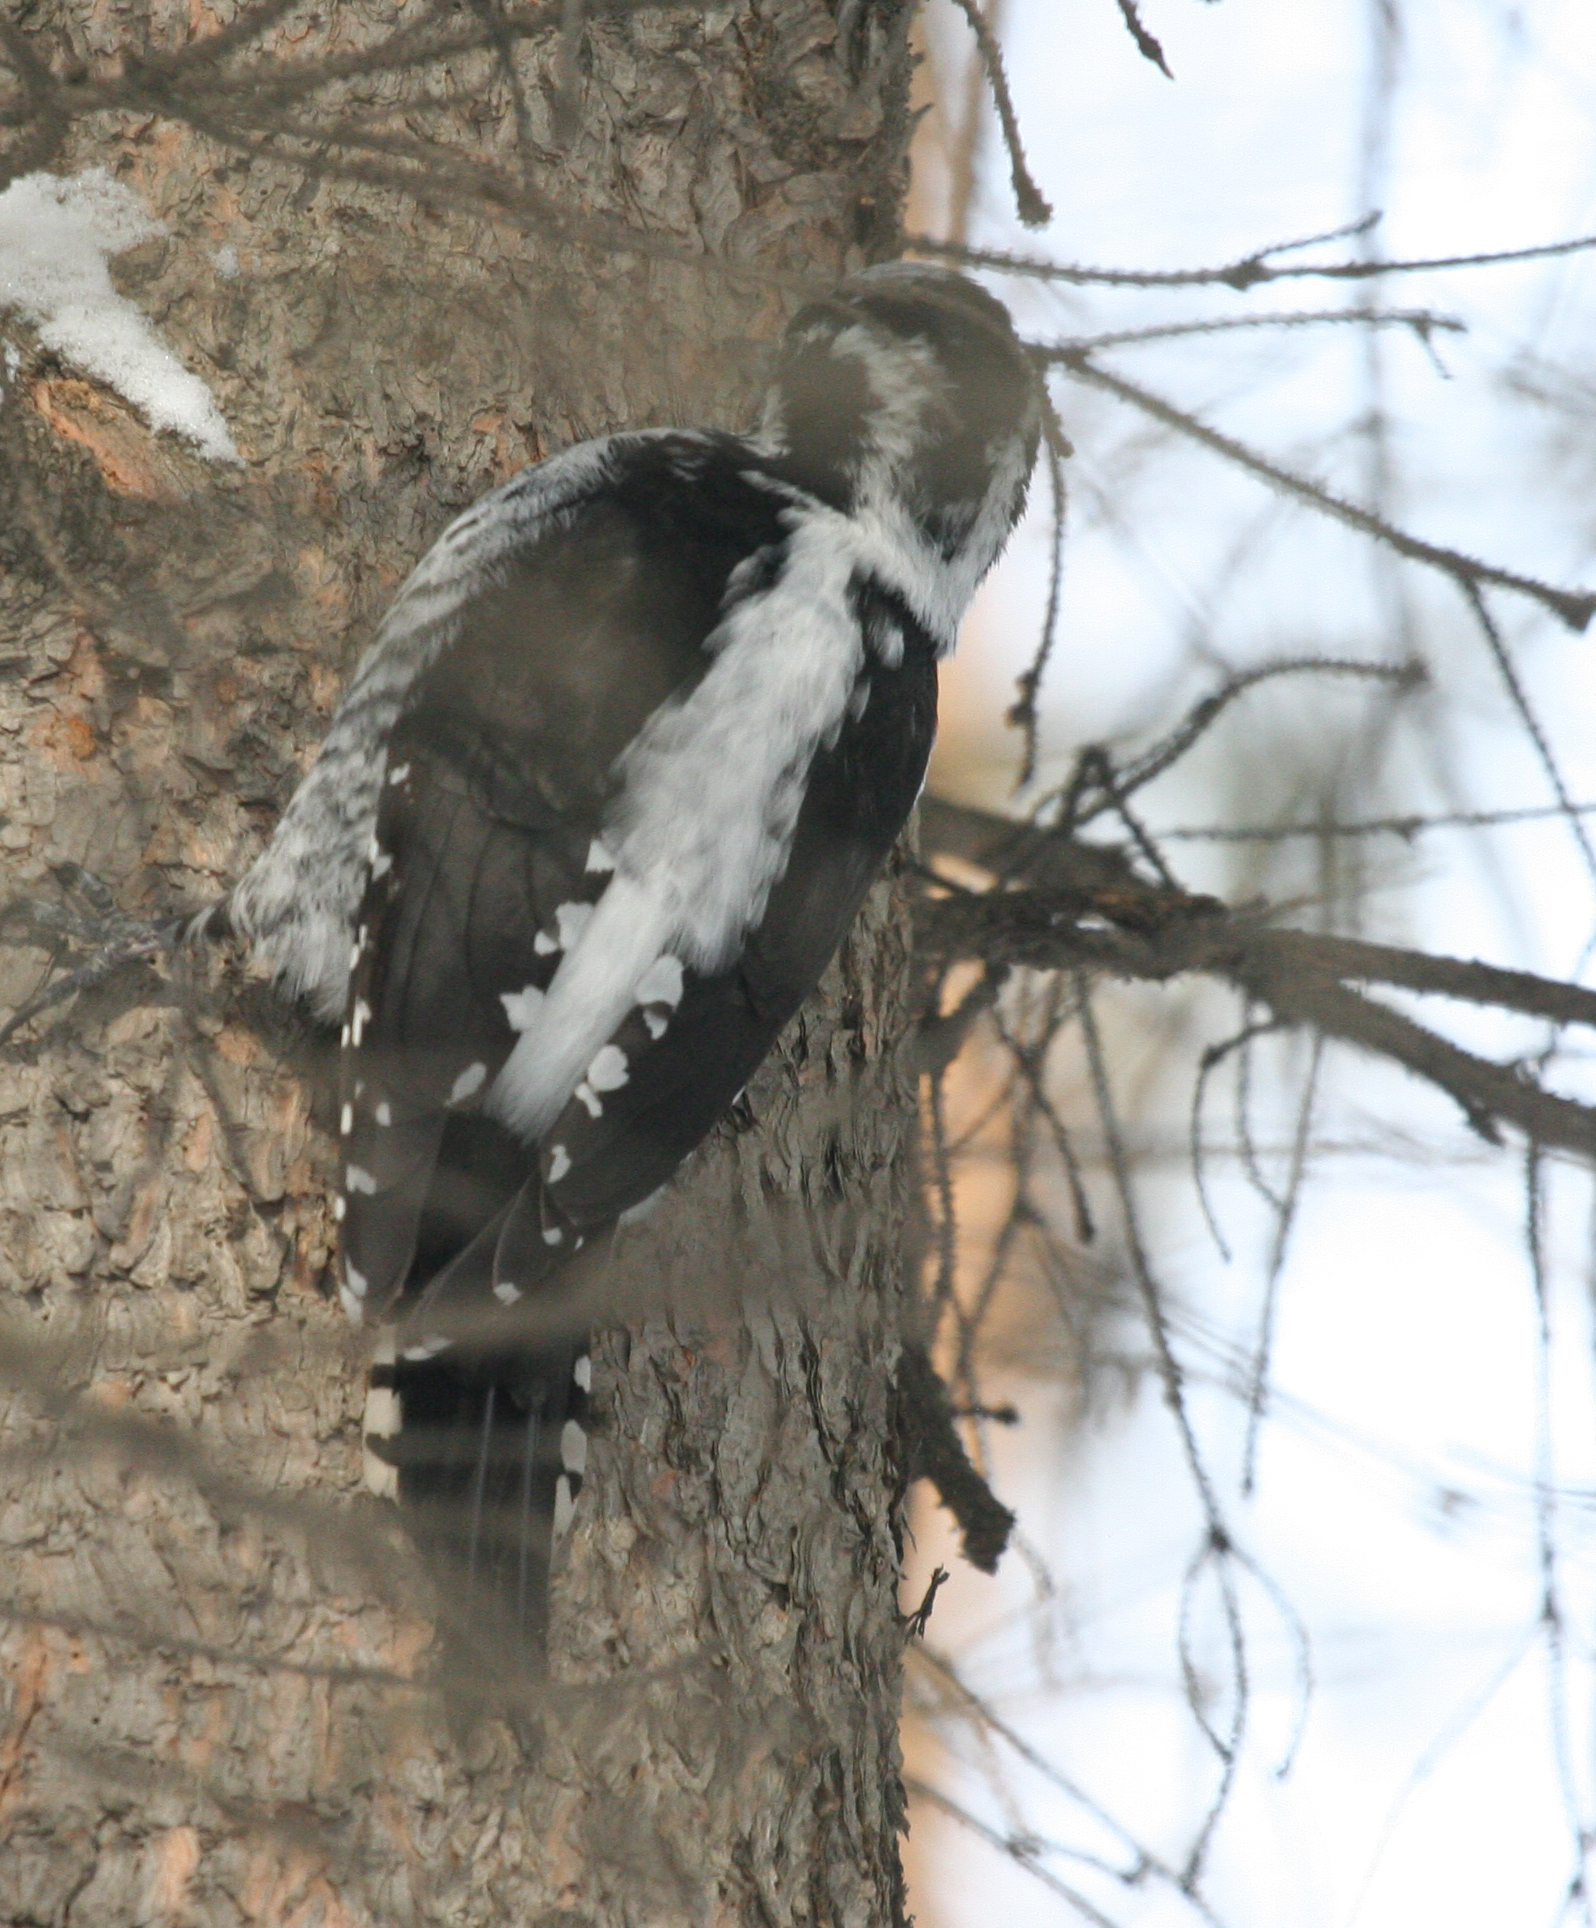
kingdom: Animalia
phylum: Chordata
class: Aves
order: Piciformes
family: Picidae
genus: Picoides
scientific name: Picoides tridactylus
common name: Eurasian three-toed woodpecker
